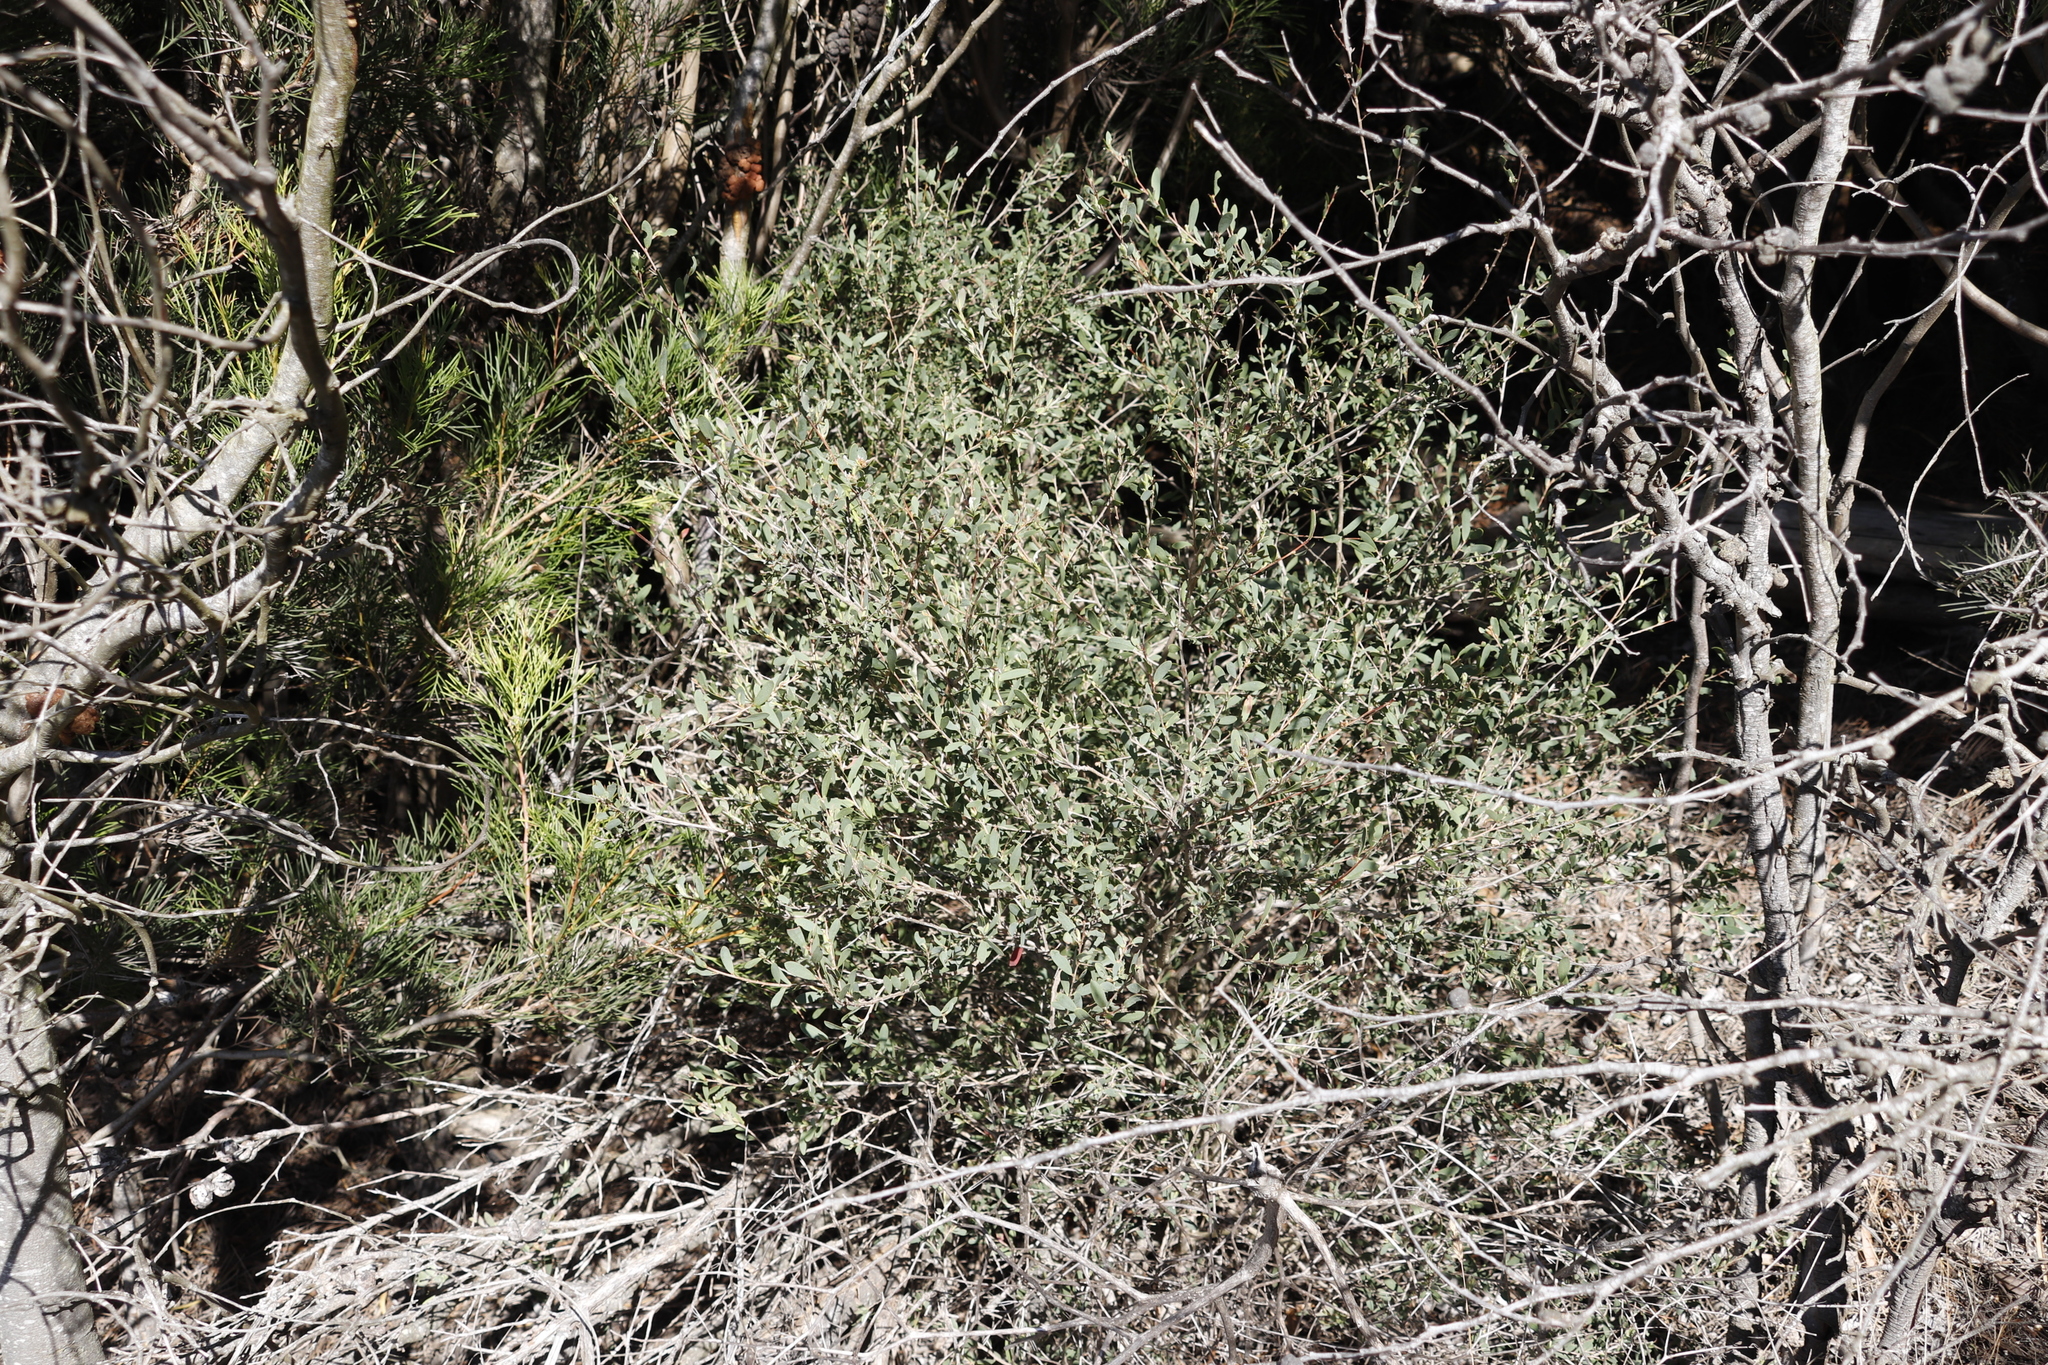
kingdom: Plantae
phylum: Tracheophyta
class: Magnoliopsida
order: Myrtales
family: Myrtaceae
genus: Leptospermum
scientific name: Leptospermum laevigatum
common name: Australian teatree
